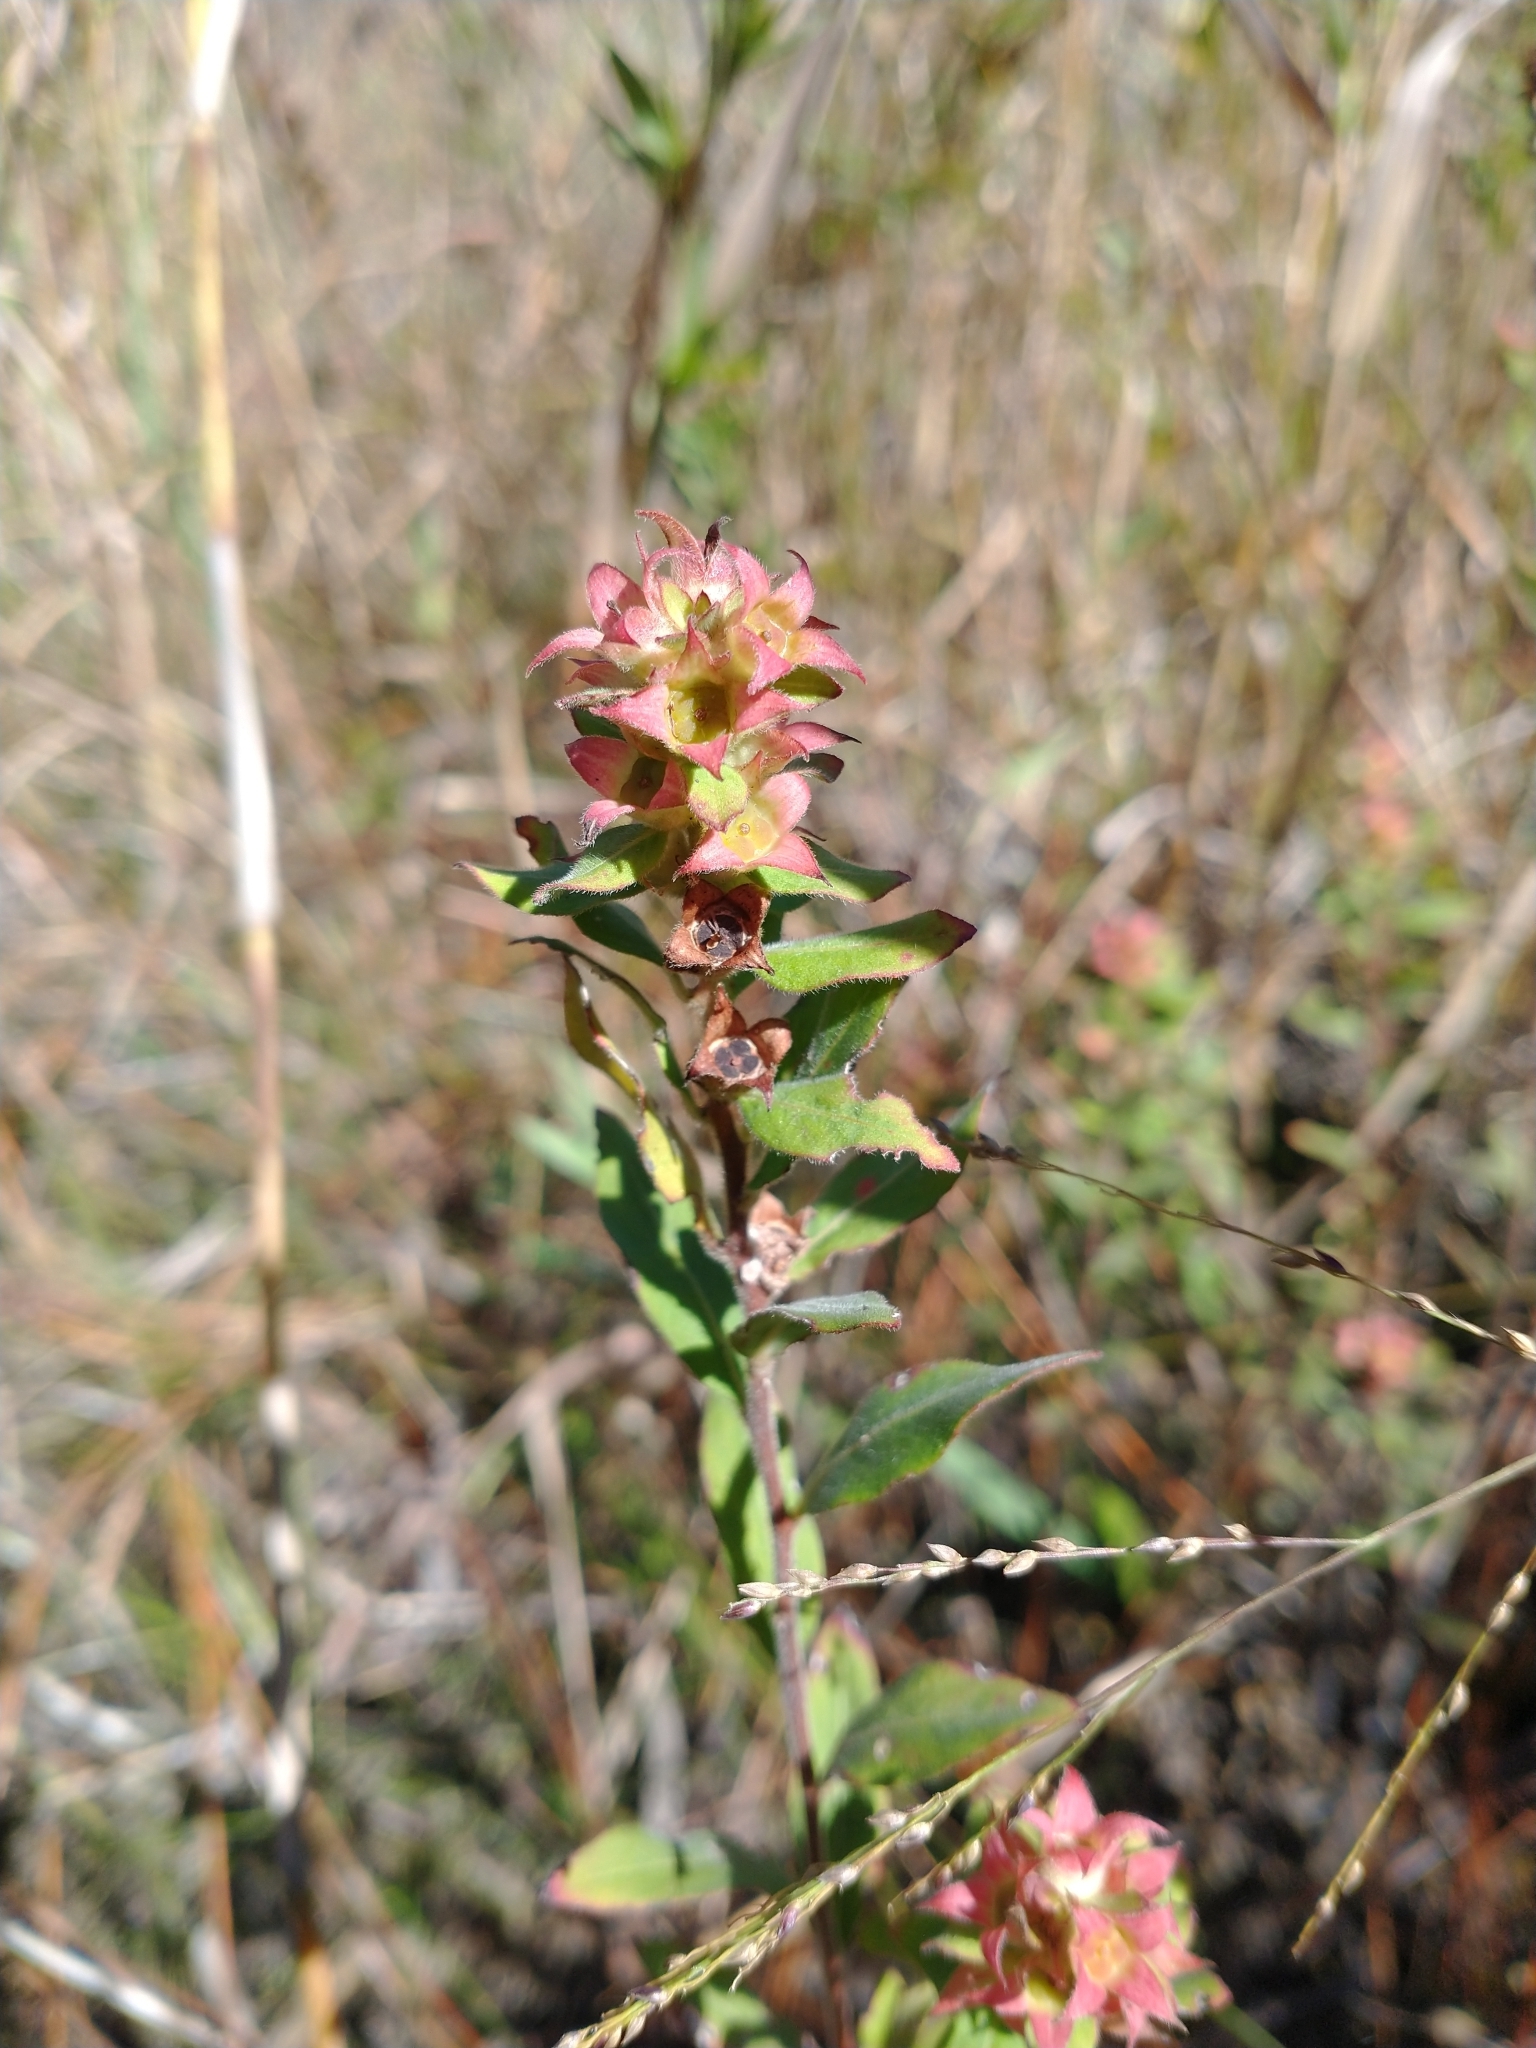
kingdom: Plantae
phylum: Tracheophyta
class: Magnoliopsida
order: Myrtales
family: Onagraceae
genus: Ludwigia
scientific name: Ludwigia pilosa
